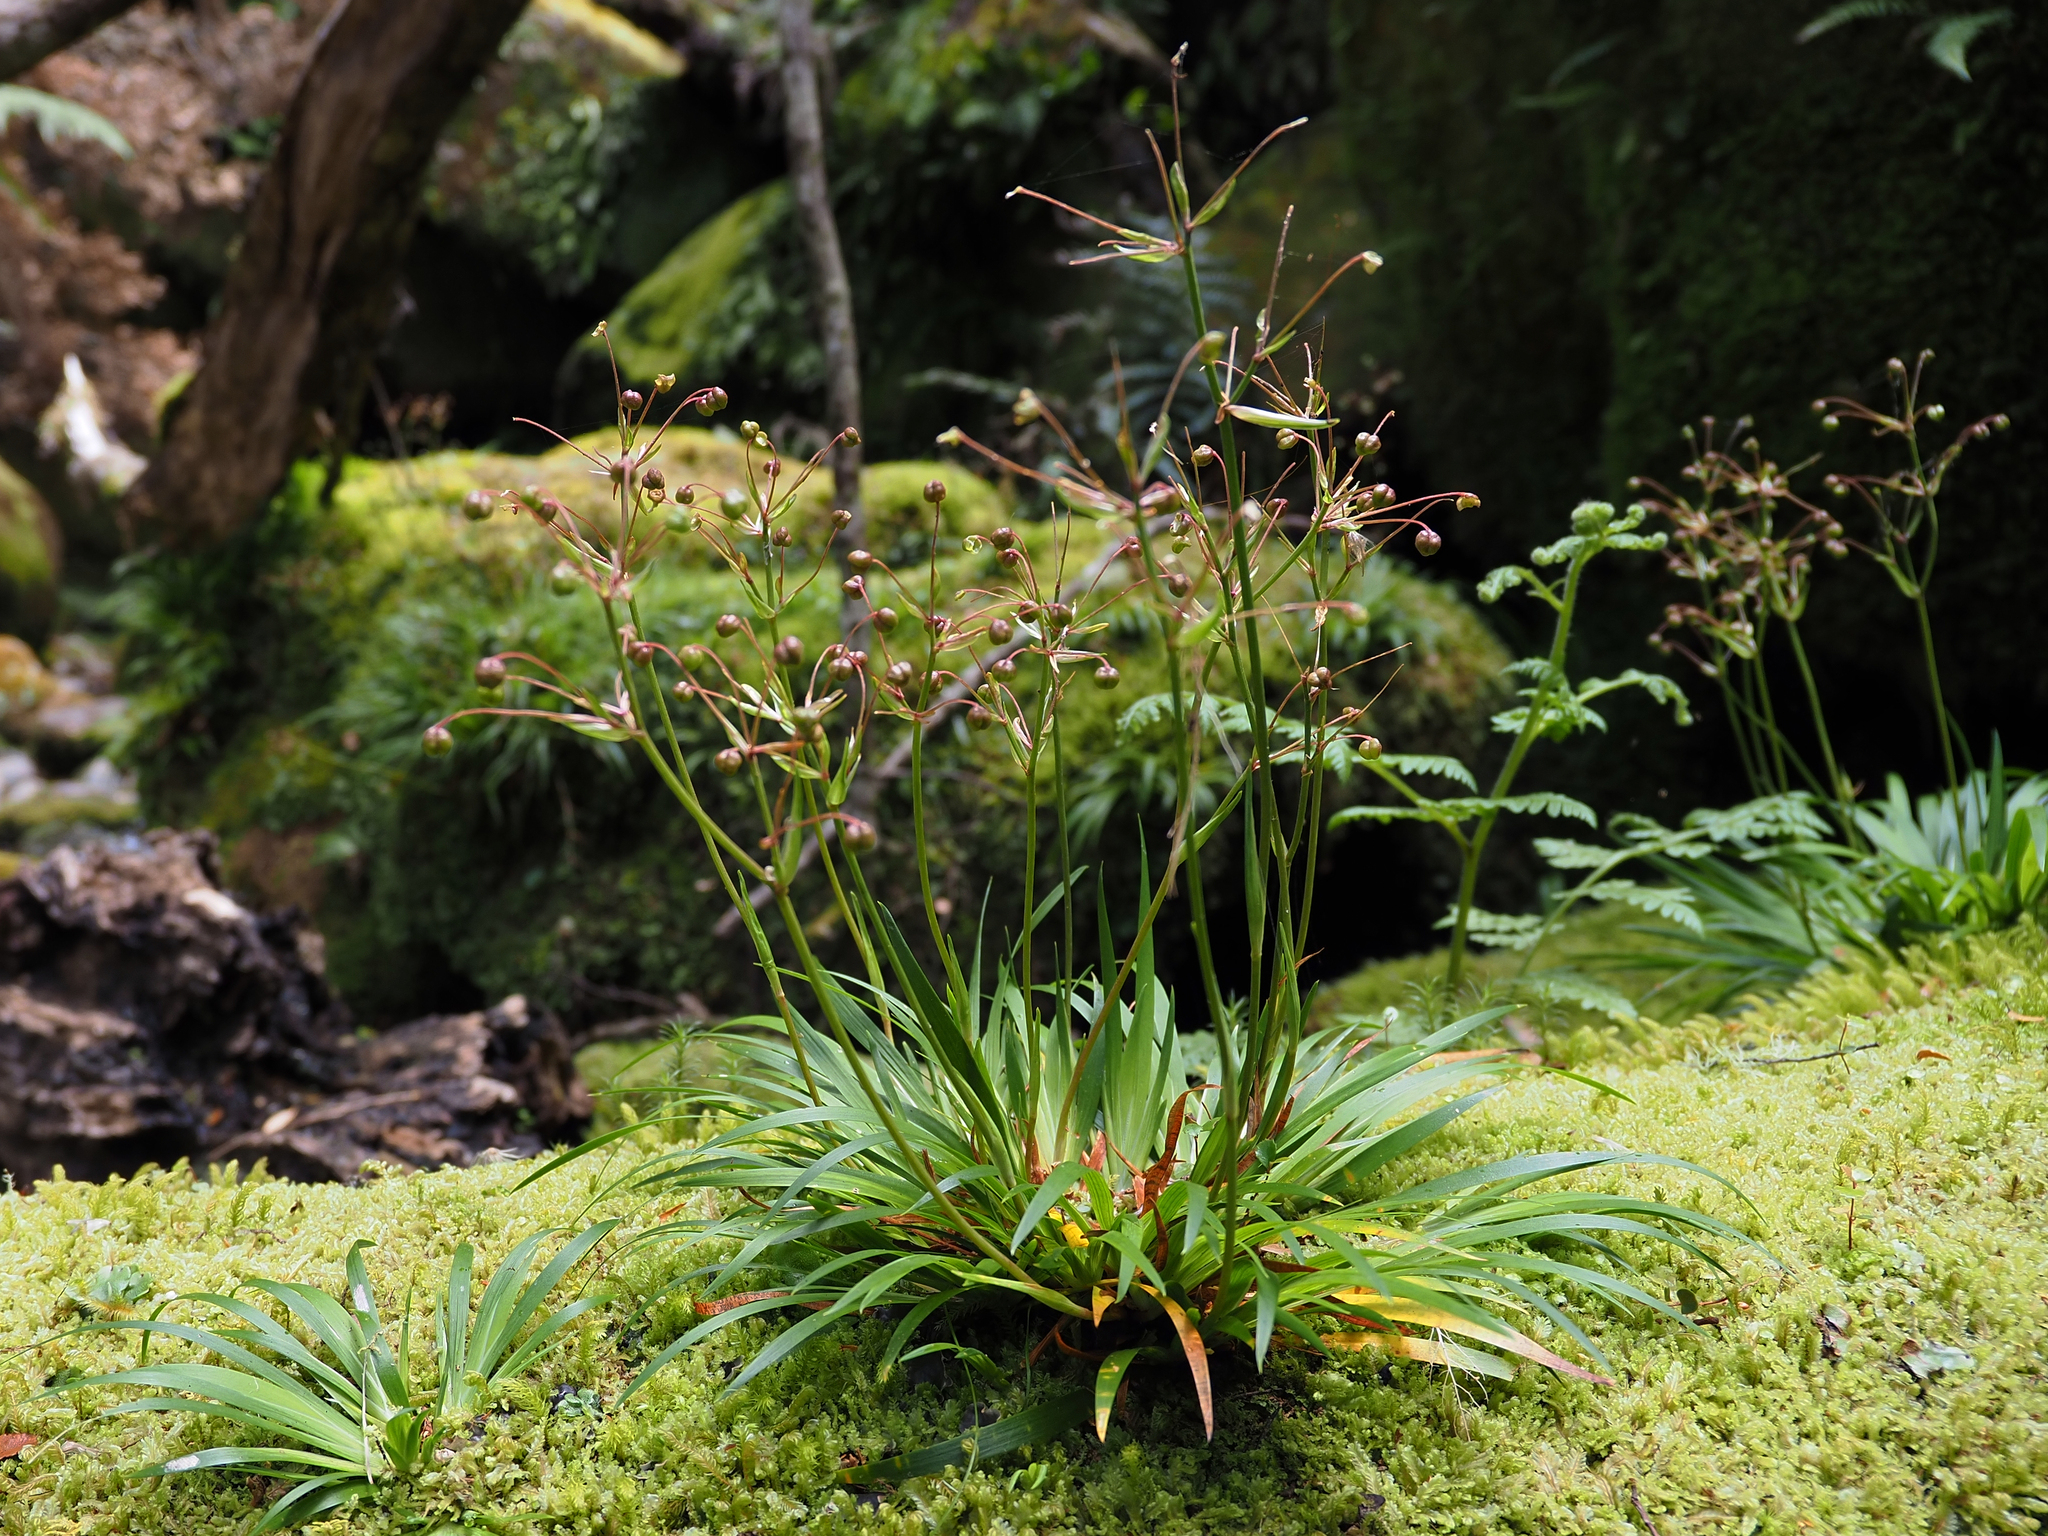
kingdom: Plantae
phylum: Tracheophyta
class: Liliopsida
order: Asparagales
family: Iridaceae
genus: Libertia
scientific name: Libertia pulchella
